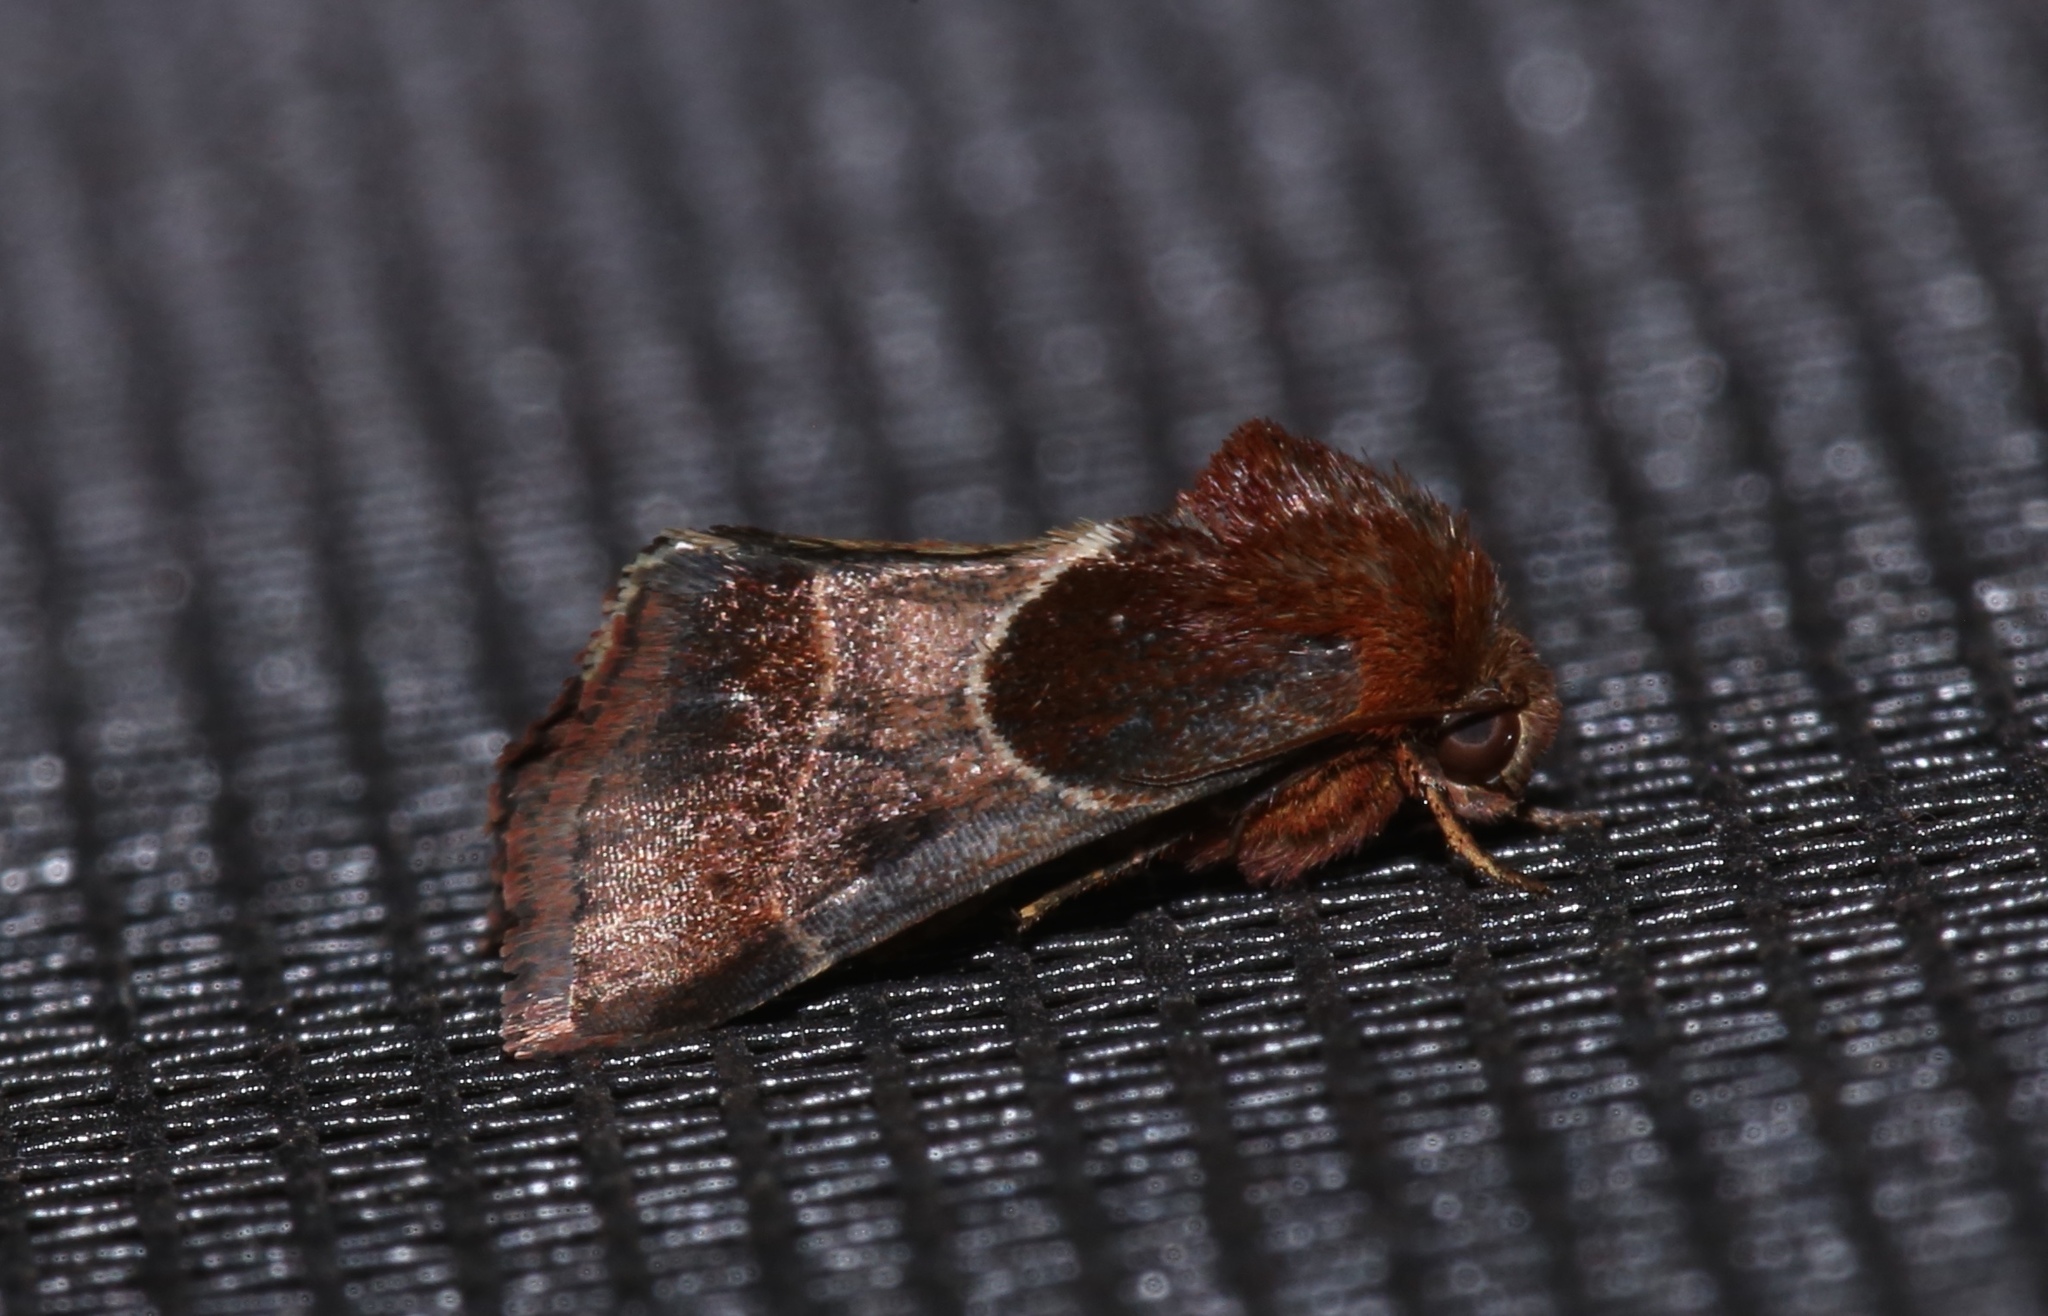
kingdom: Animalia
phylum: Arthropoda
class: Insecta
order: Lepidoptera
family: Noctuidae
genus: Schinia
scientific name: Schinia arcigera
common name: Arcigera flower moth
